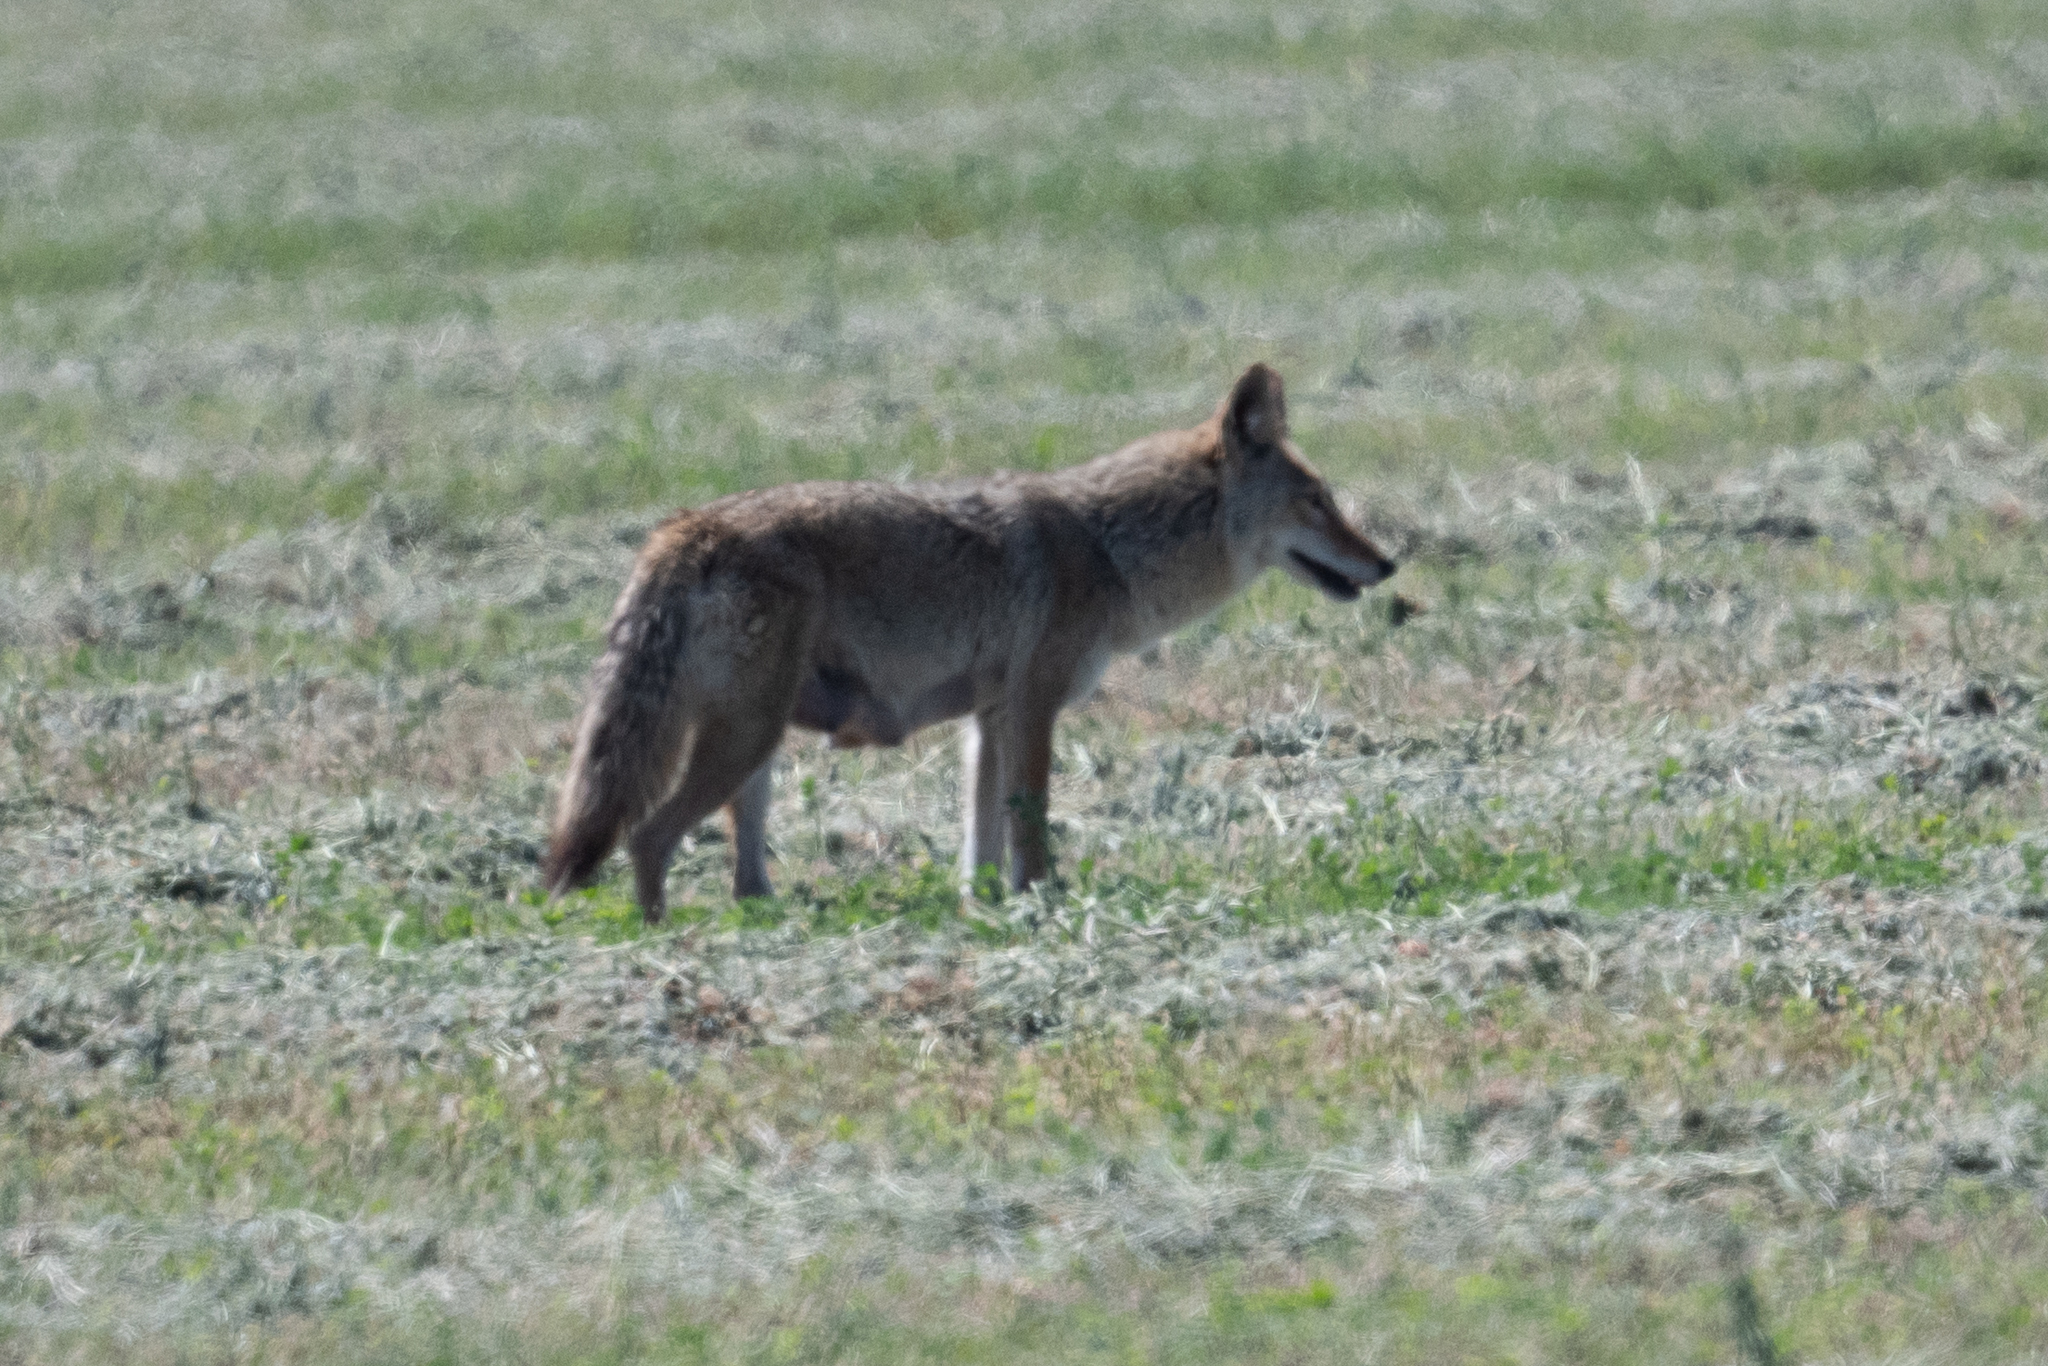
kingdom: Animalia
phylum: Chordata
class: Mammalia
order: Carnivora
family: Canidae
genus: Canis
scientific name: Canis latrans
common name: Coyote
